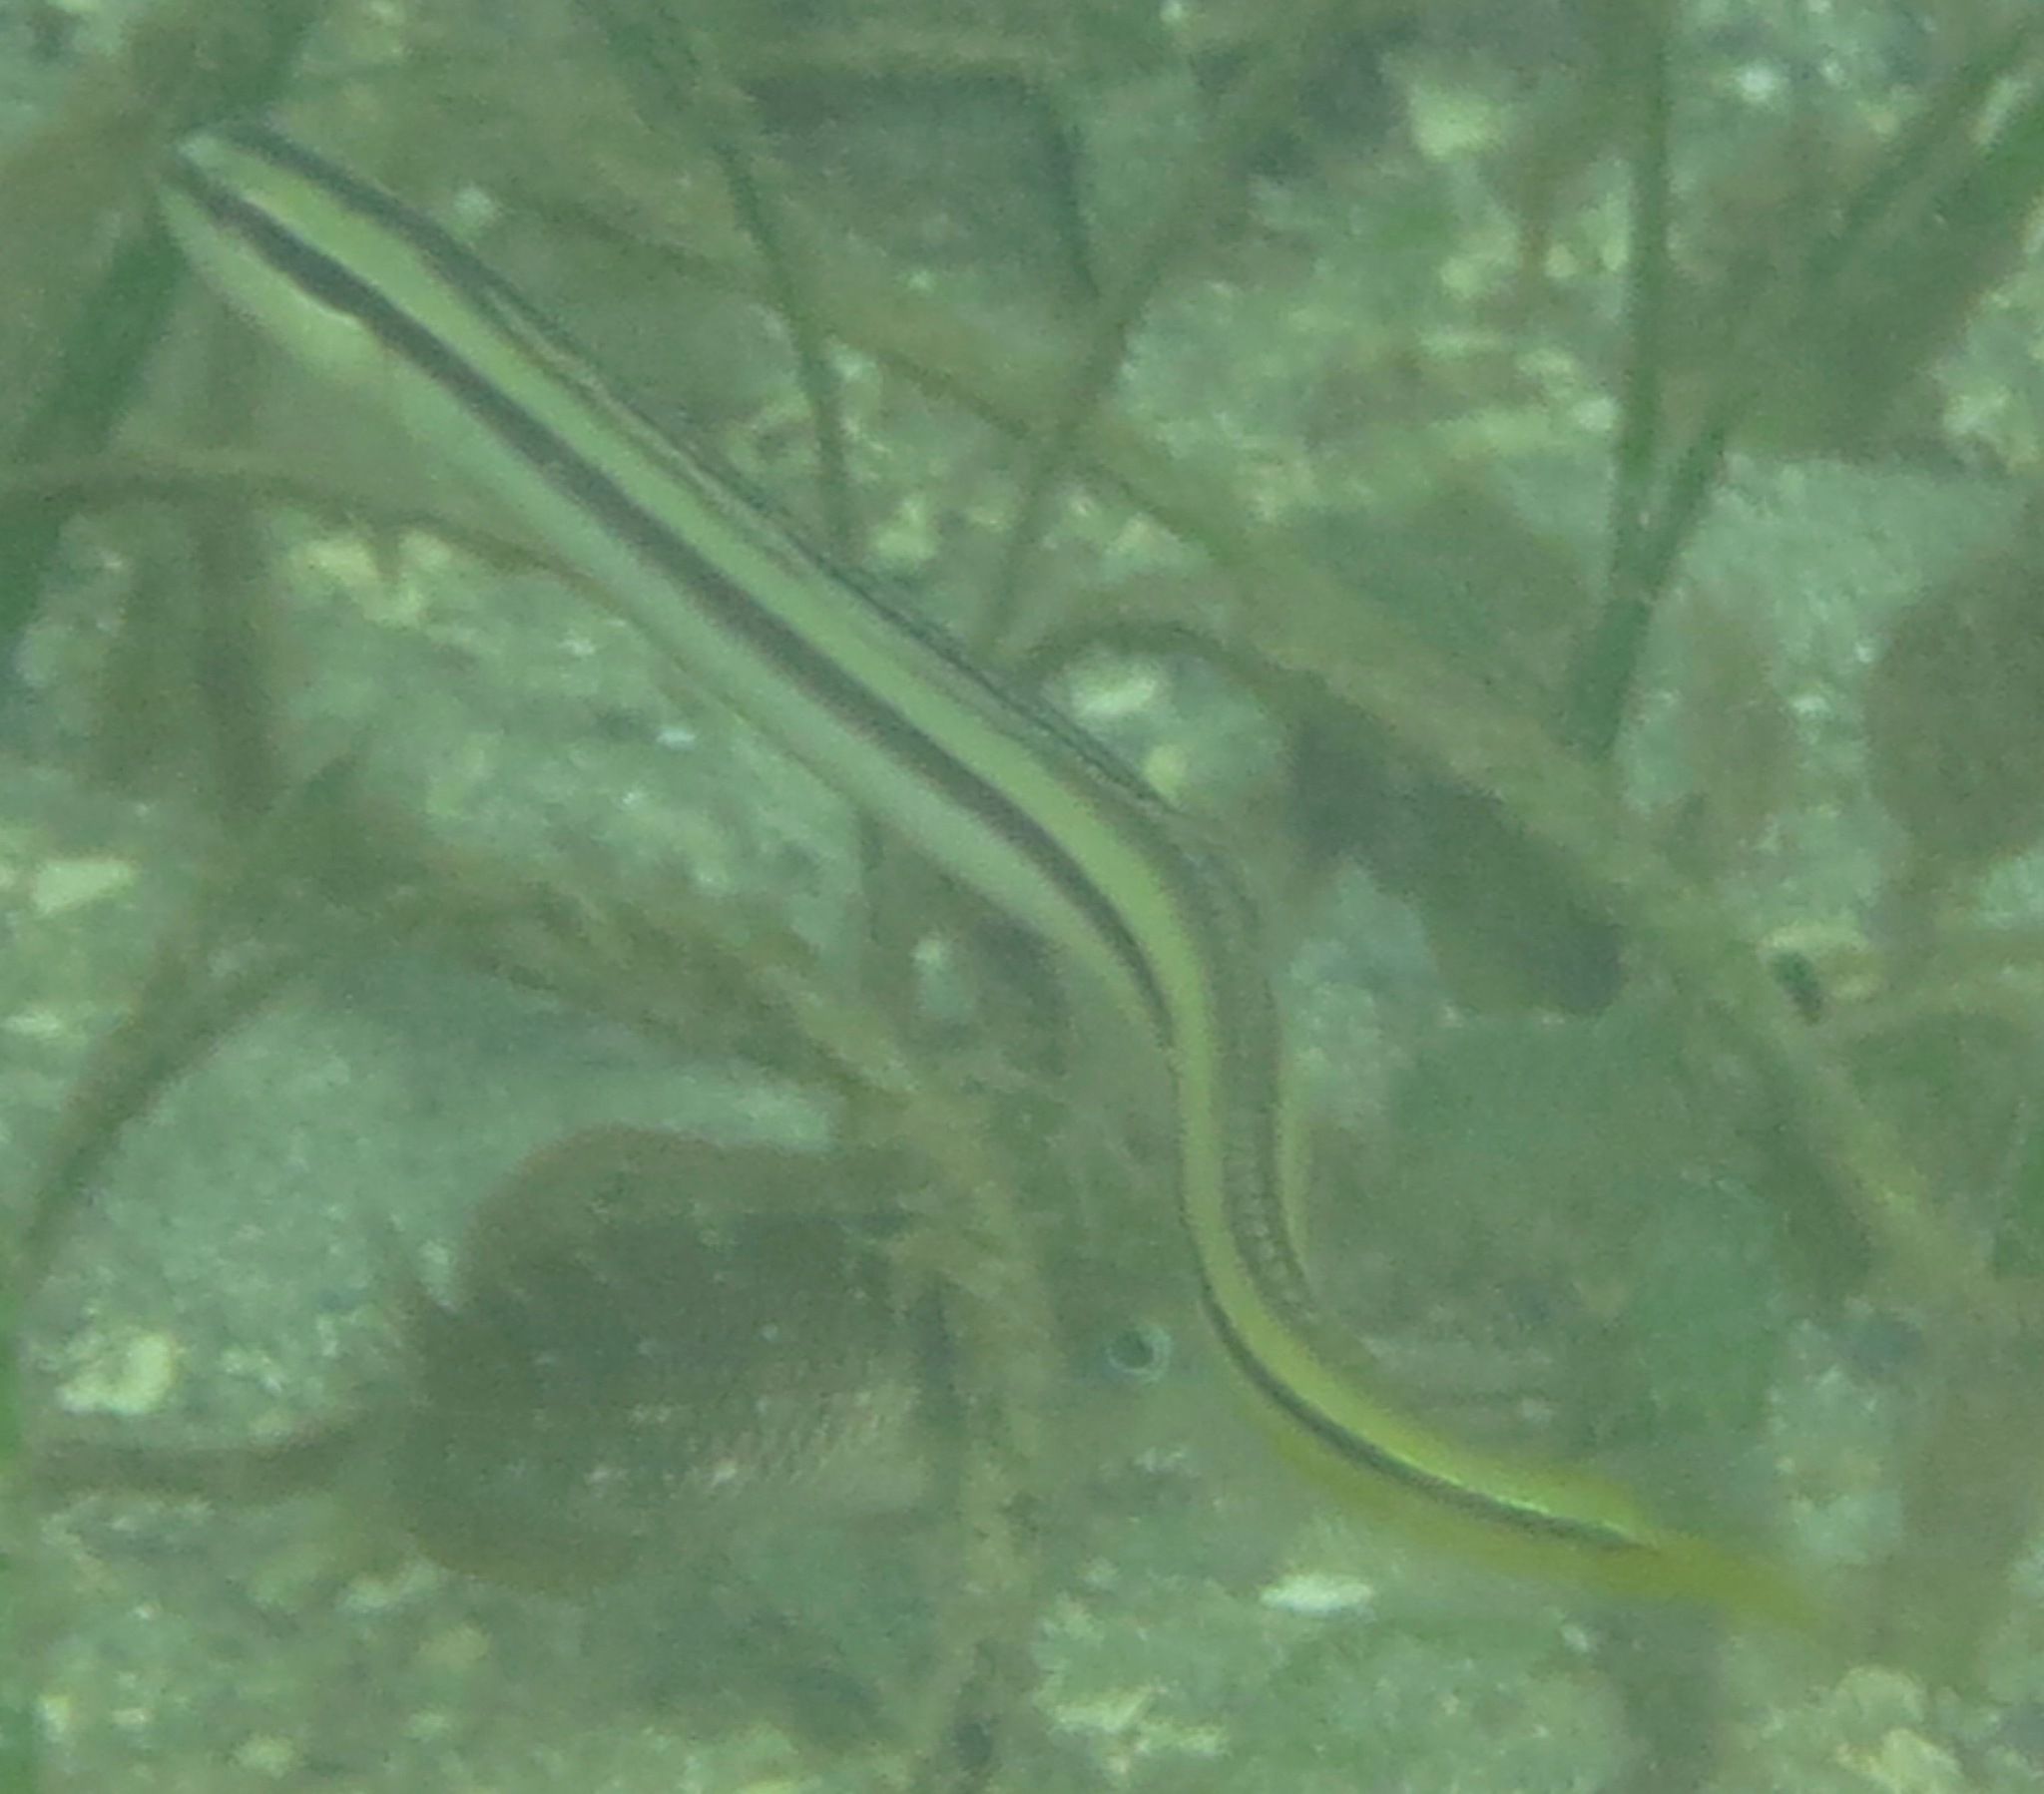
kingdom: Animalia
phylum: Chordata
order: Perciformes
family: Microdesmidae
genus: Gunnellichthys
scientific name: Gunnellichthys pleurotaenia
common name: Black-stripe worm-goby
